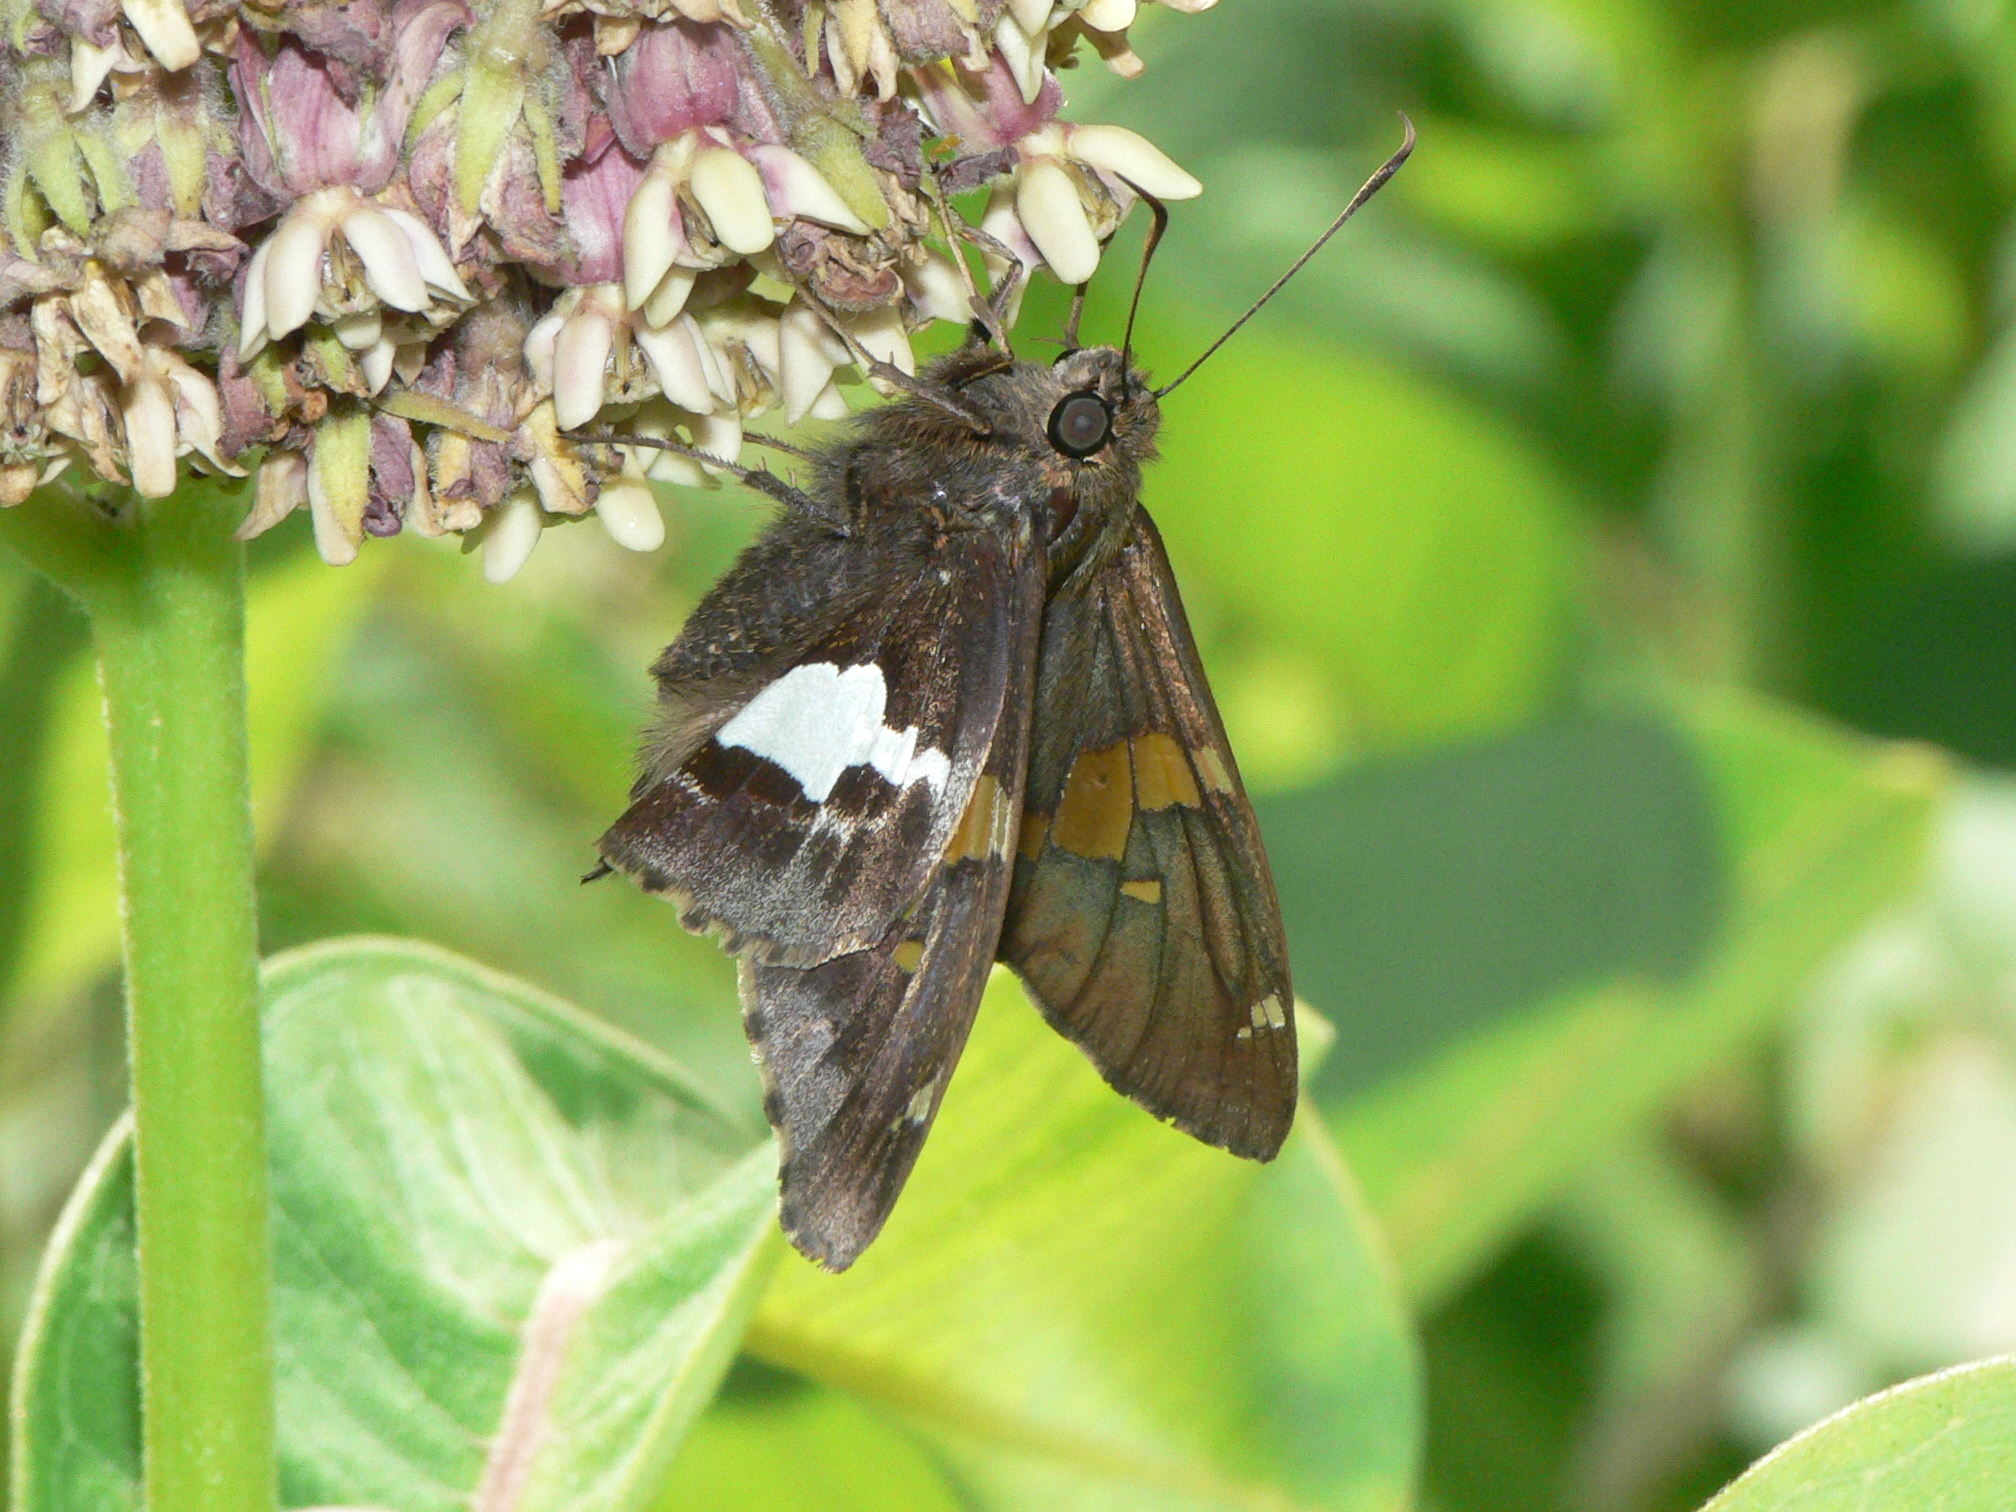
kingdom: Animalia
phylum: Arthropoda
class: Insecta
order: Lepidoptera
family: Hesperiidae
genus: Epargyreus
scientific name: Epargyreus clarus
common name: Silver-spotted skipper
